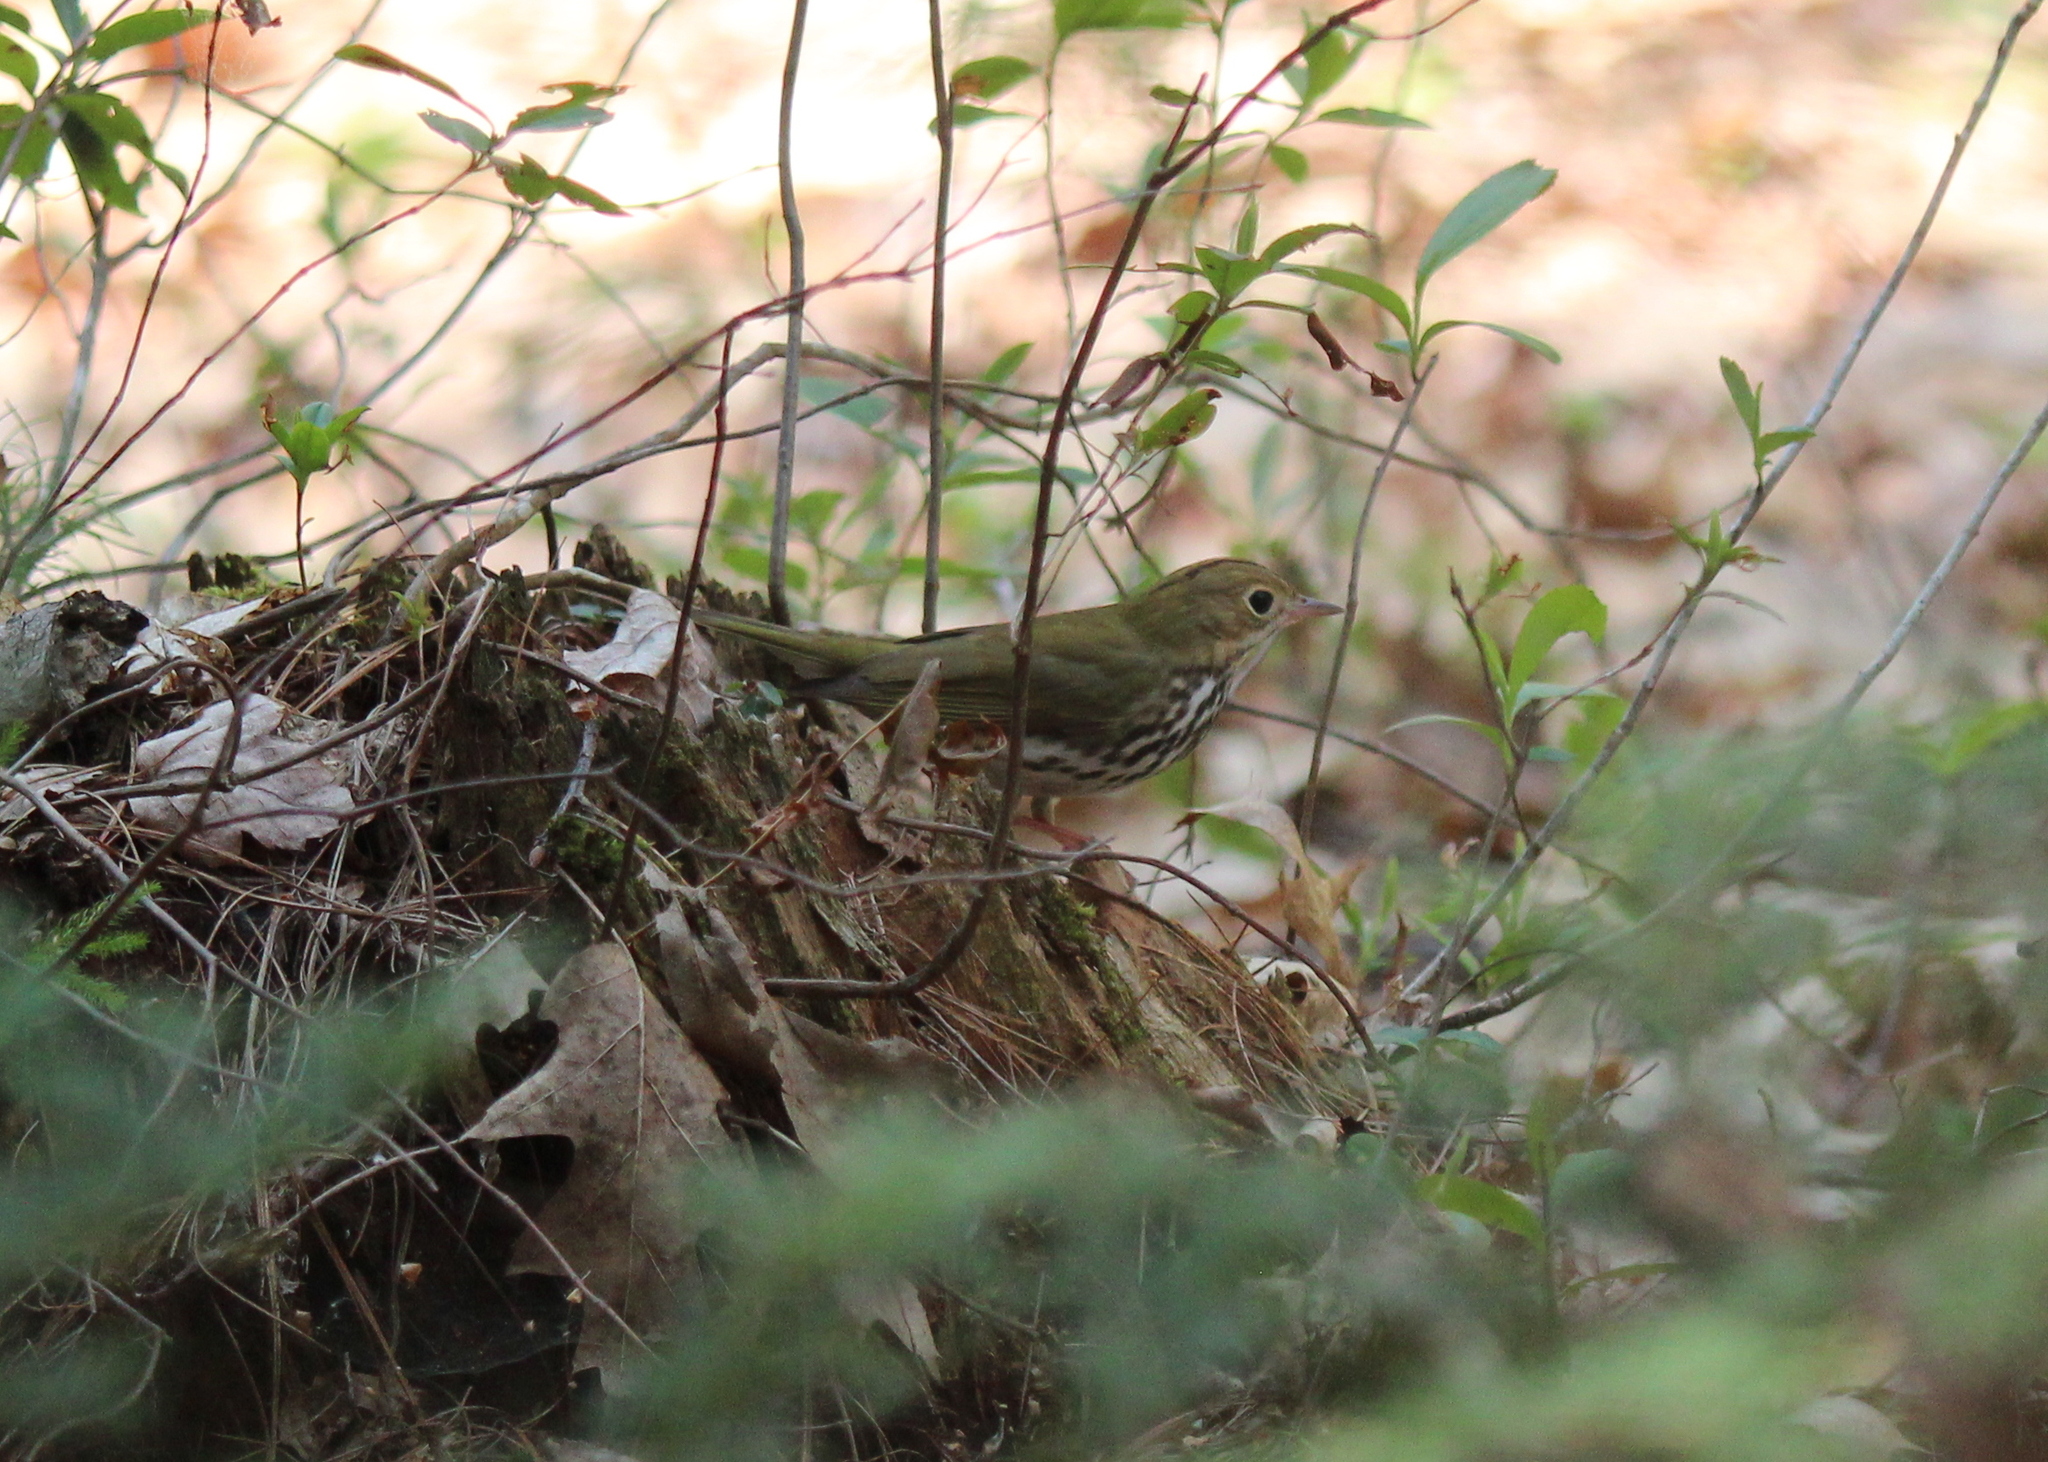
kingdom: Animalia
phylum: Chordata
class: Aves
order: Passeriformes
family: Parulidae
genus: Seiurus
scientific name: Seiurus aurocapilla
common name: Ovenbird
